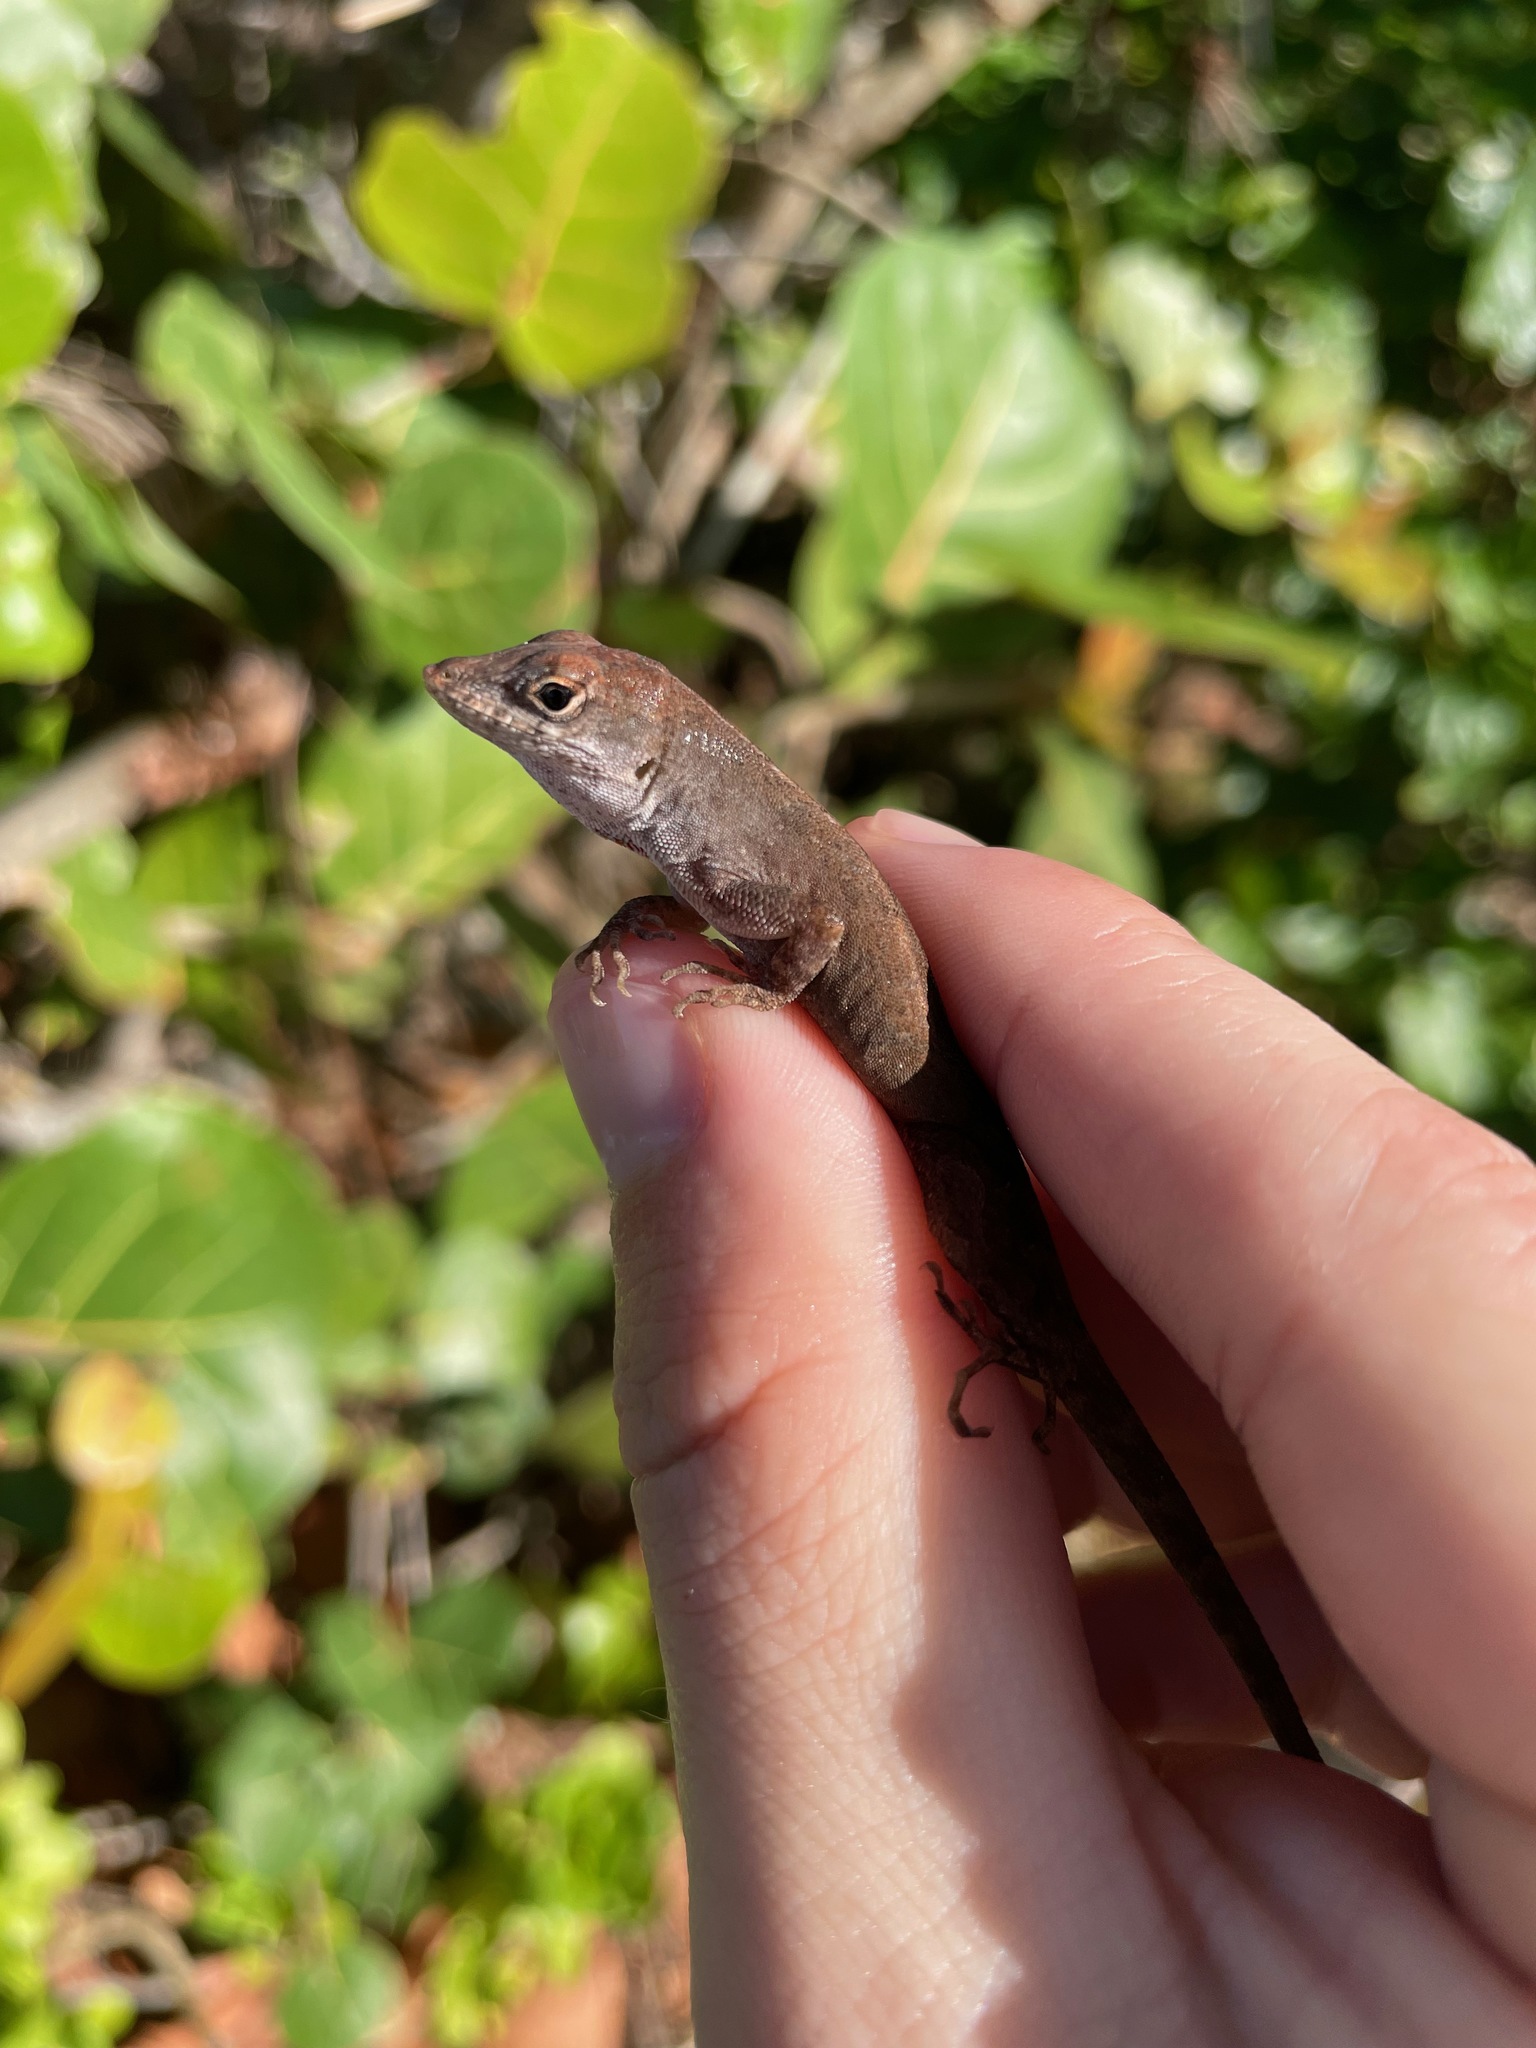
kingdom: Animalia
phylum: Chordata
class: Squamata
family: Dactyloidae
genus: Anolis
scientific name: Anolis sagrei
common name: Brown anole
